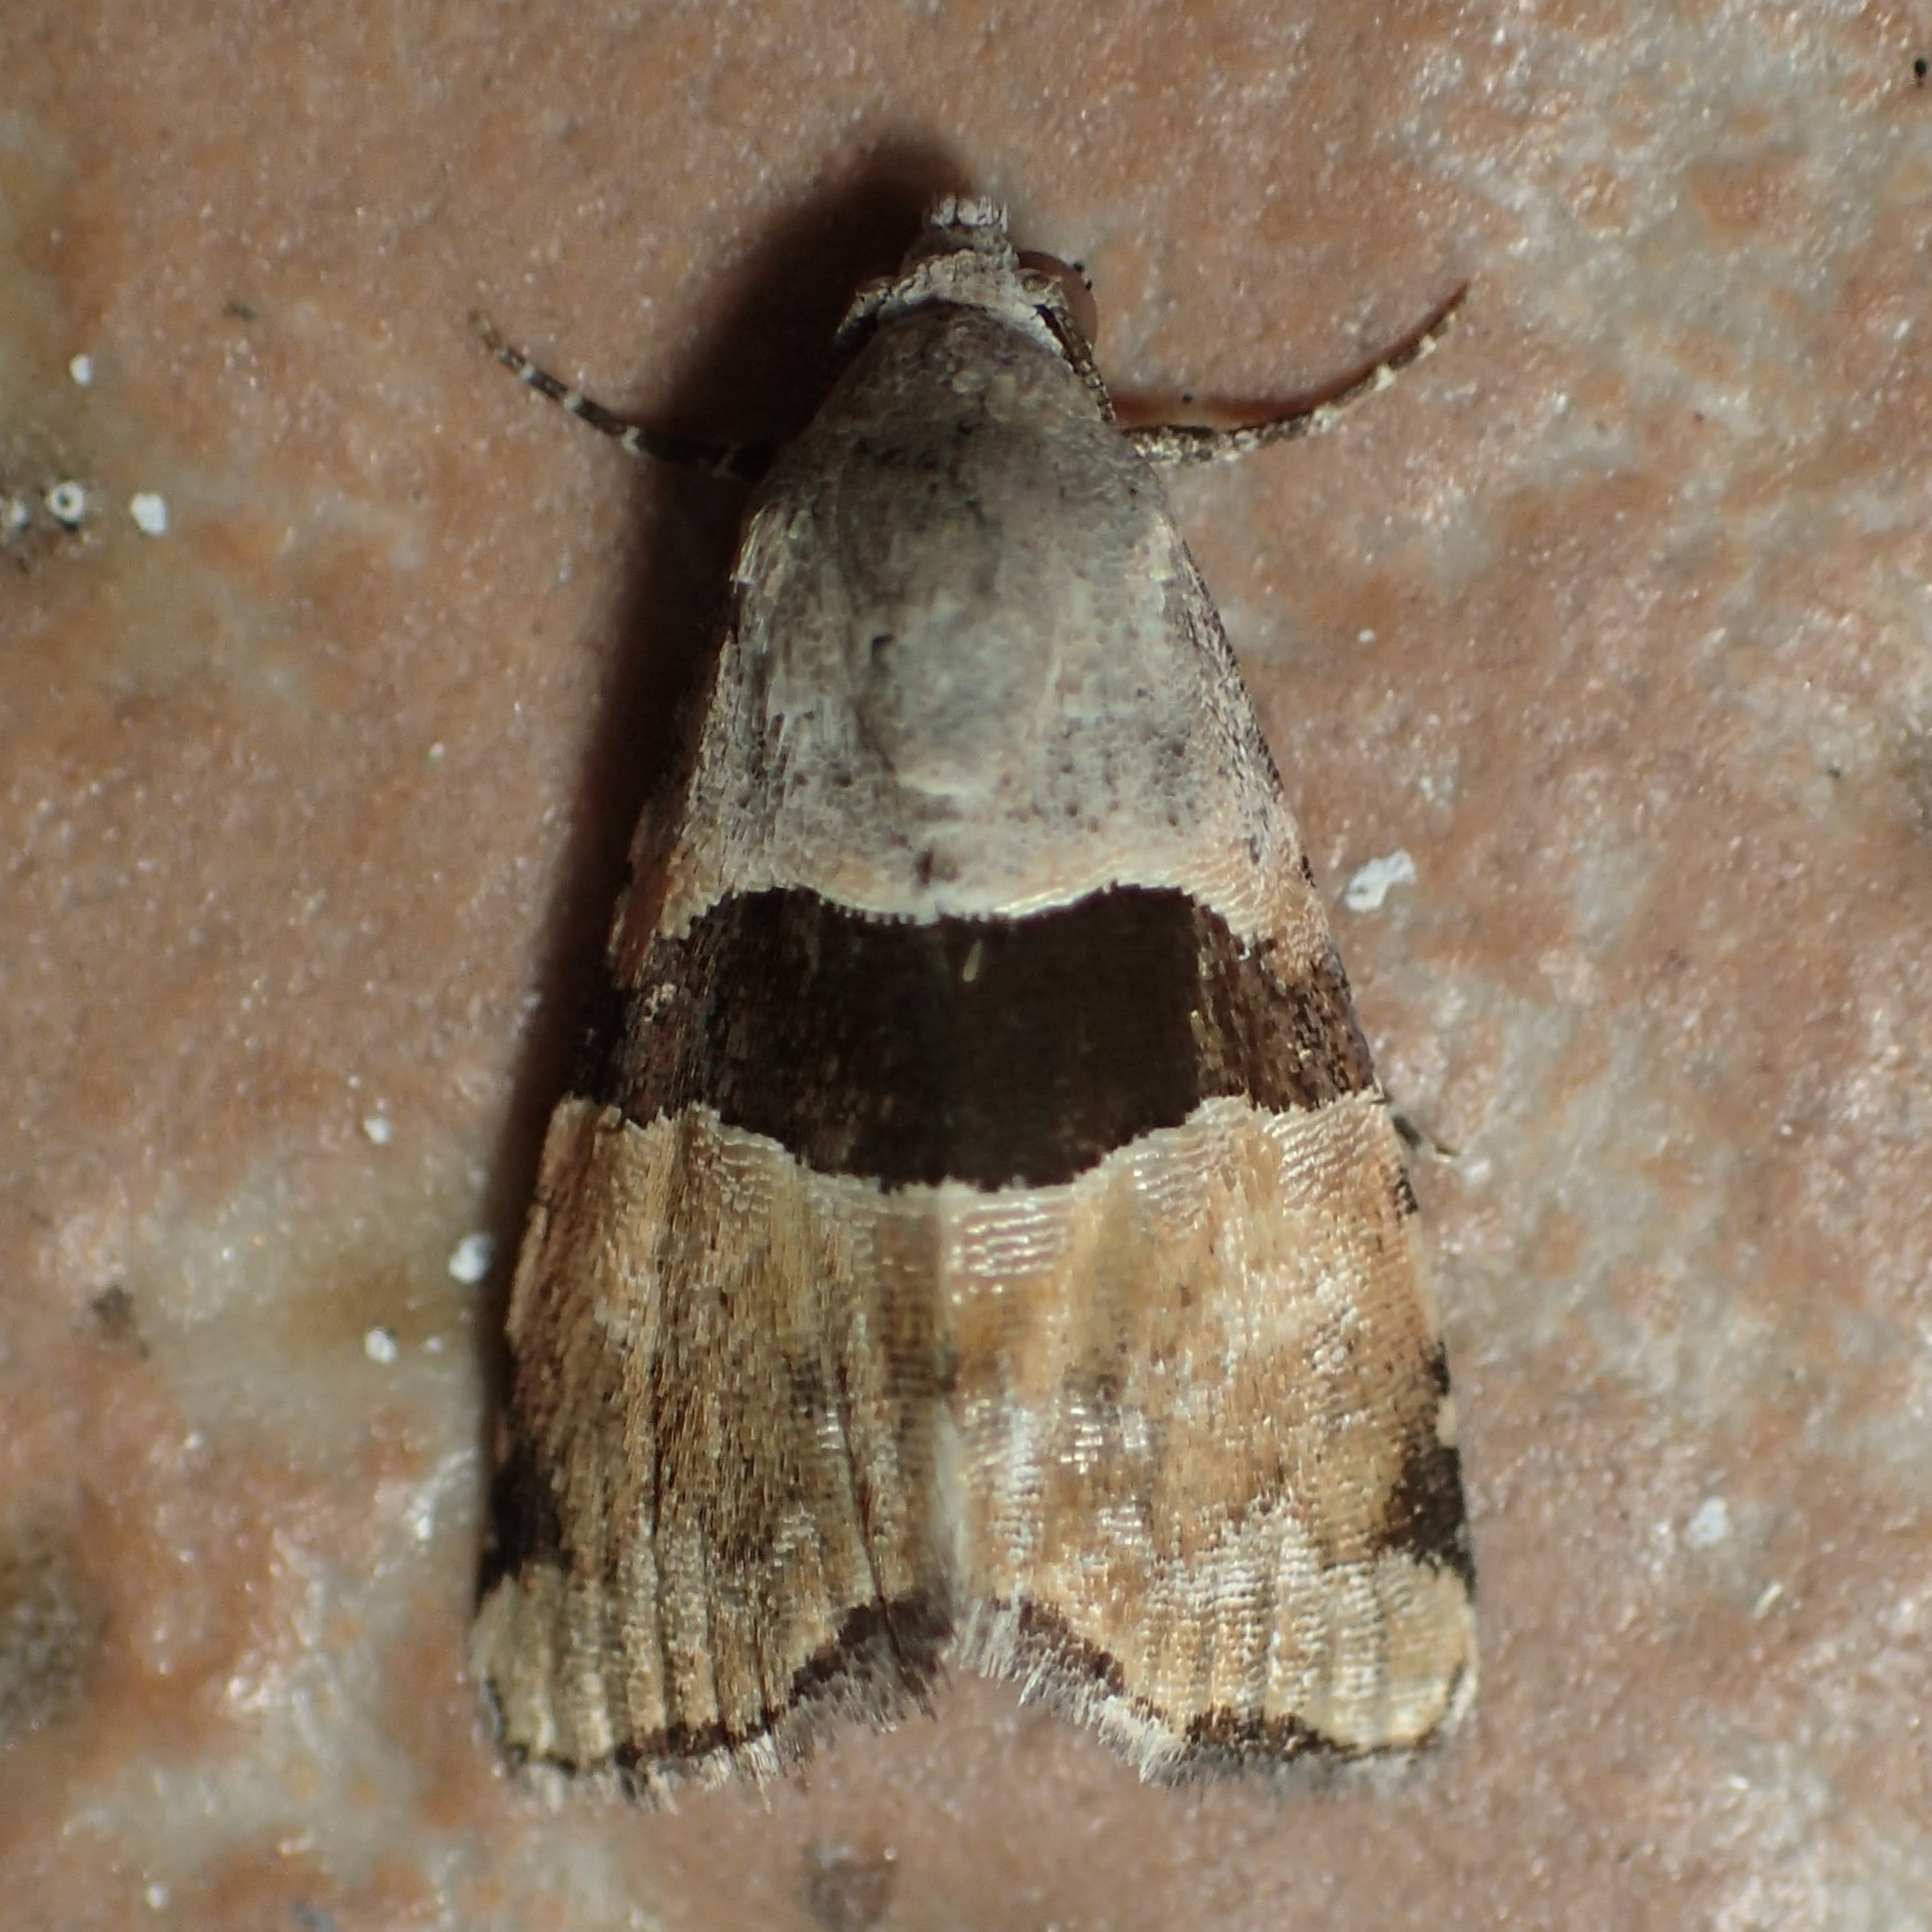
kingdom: Animalia
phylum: Arthropoda
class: Insecta
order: Lepidoptera
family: Noctuidae
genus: Cobubatha
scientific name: Cobubatha lixiva
